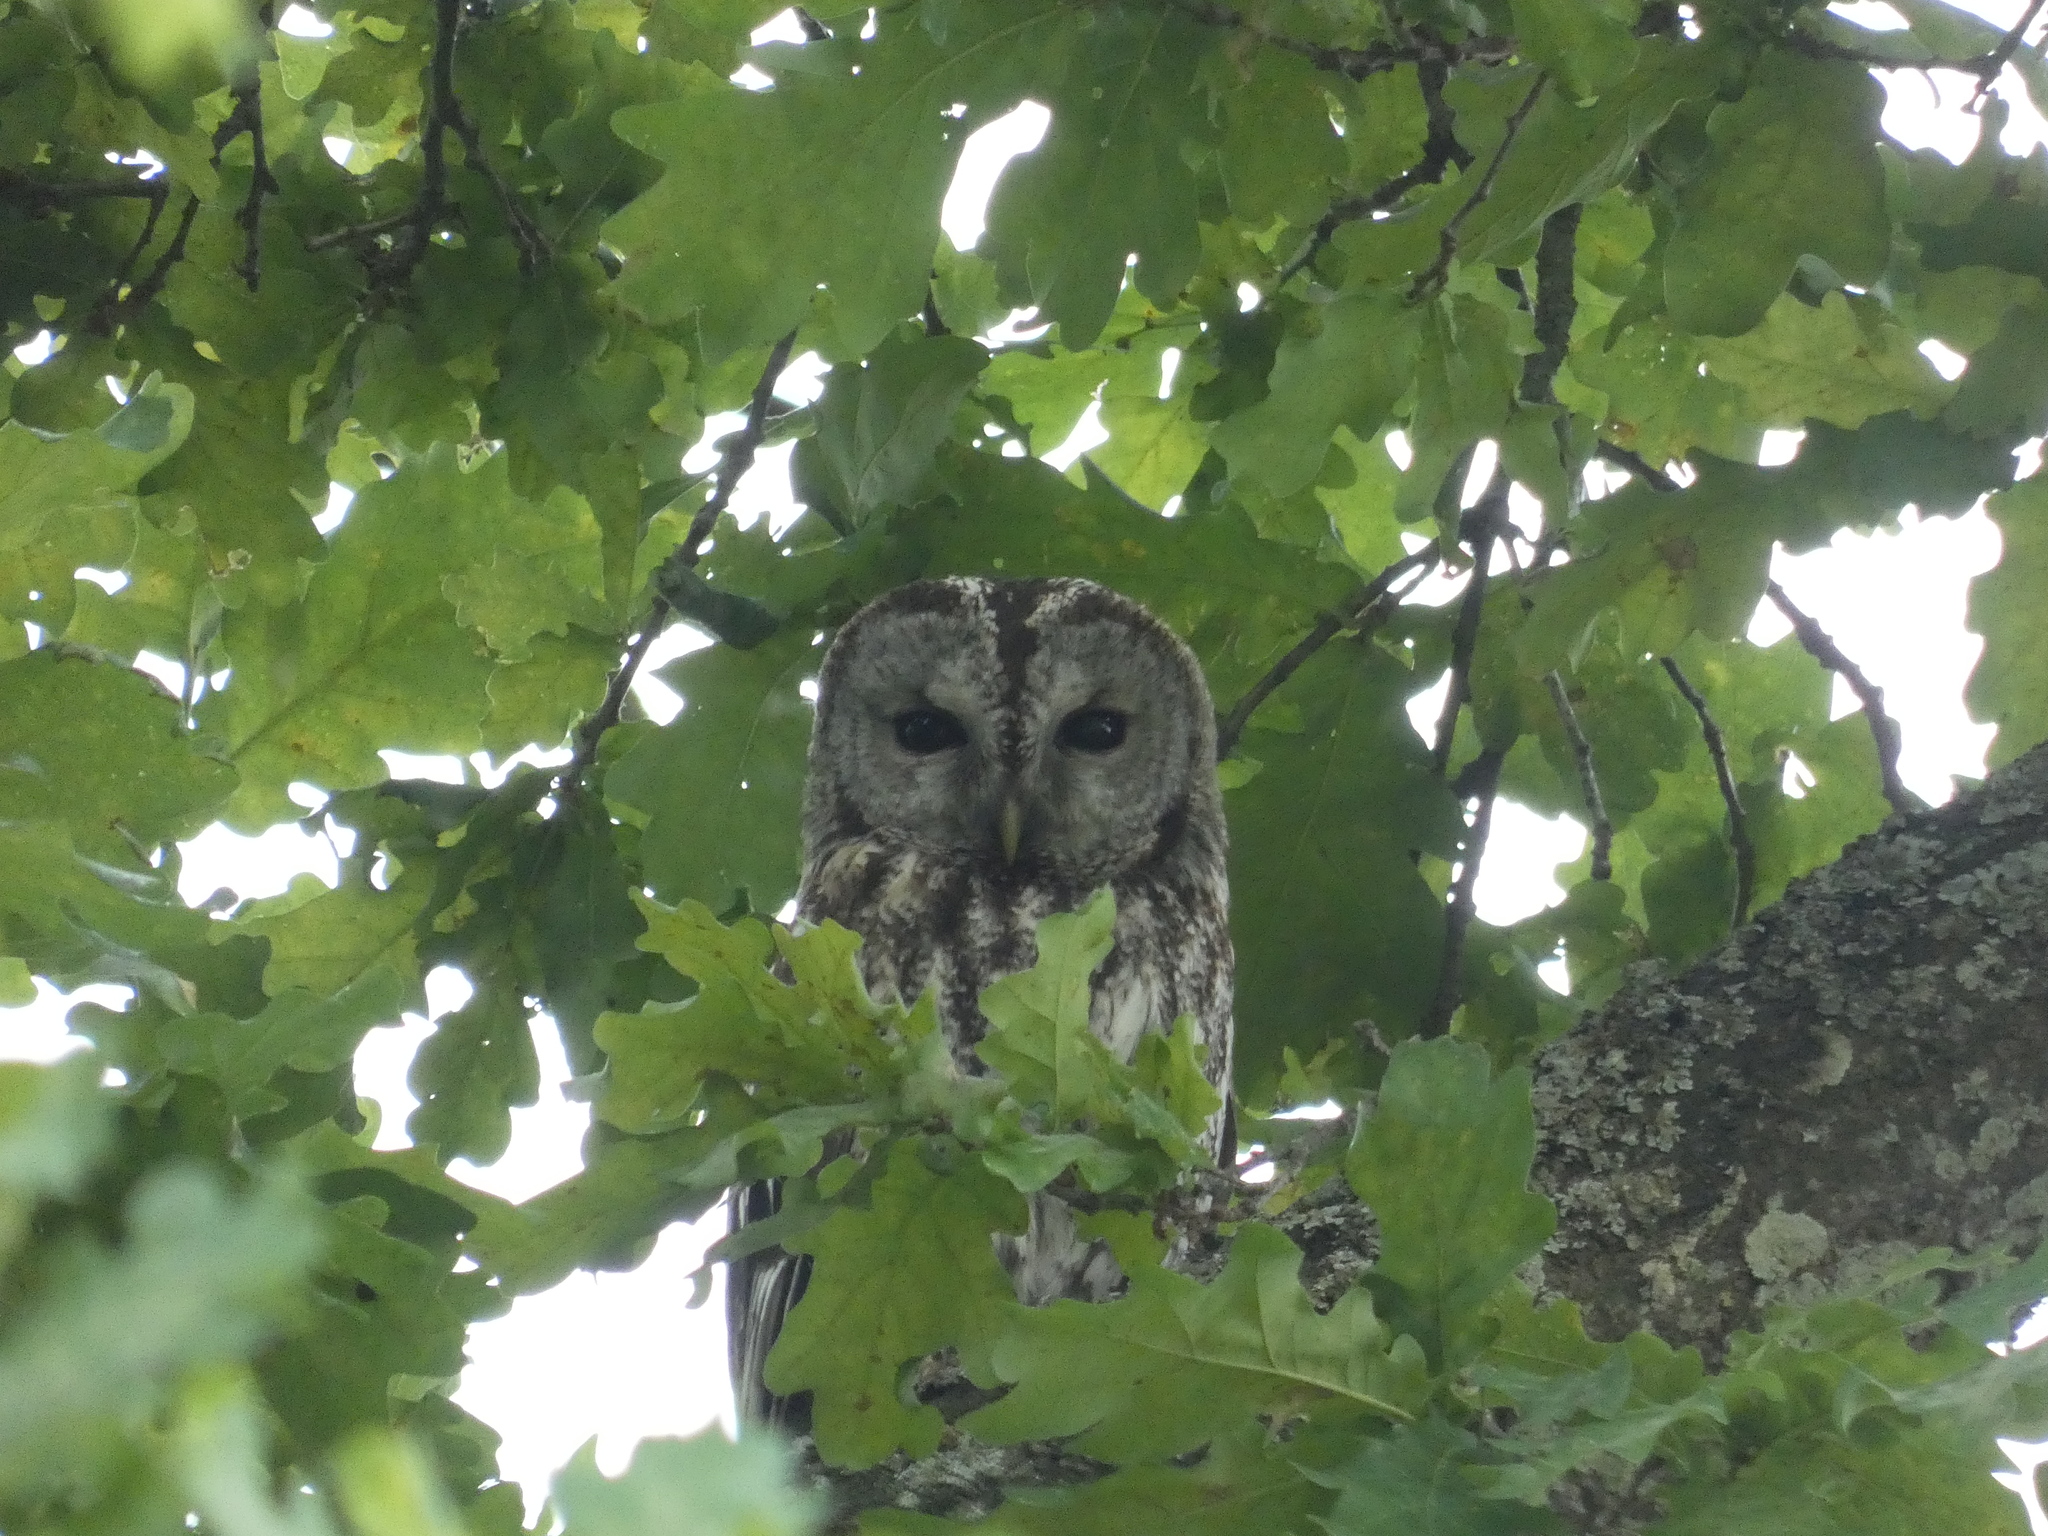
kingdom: Animalia
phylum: Chordata
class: Aves
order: Strigiformes
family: Strigidae
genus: Strix
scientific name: Strix aluco
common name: Tawny owl
